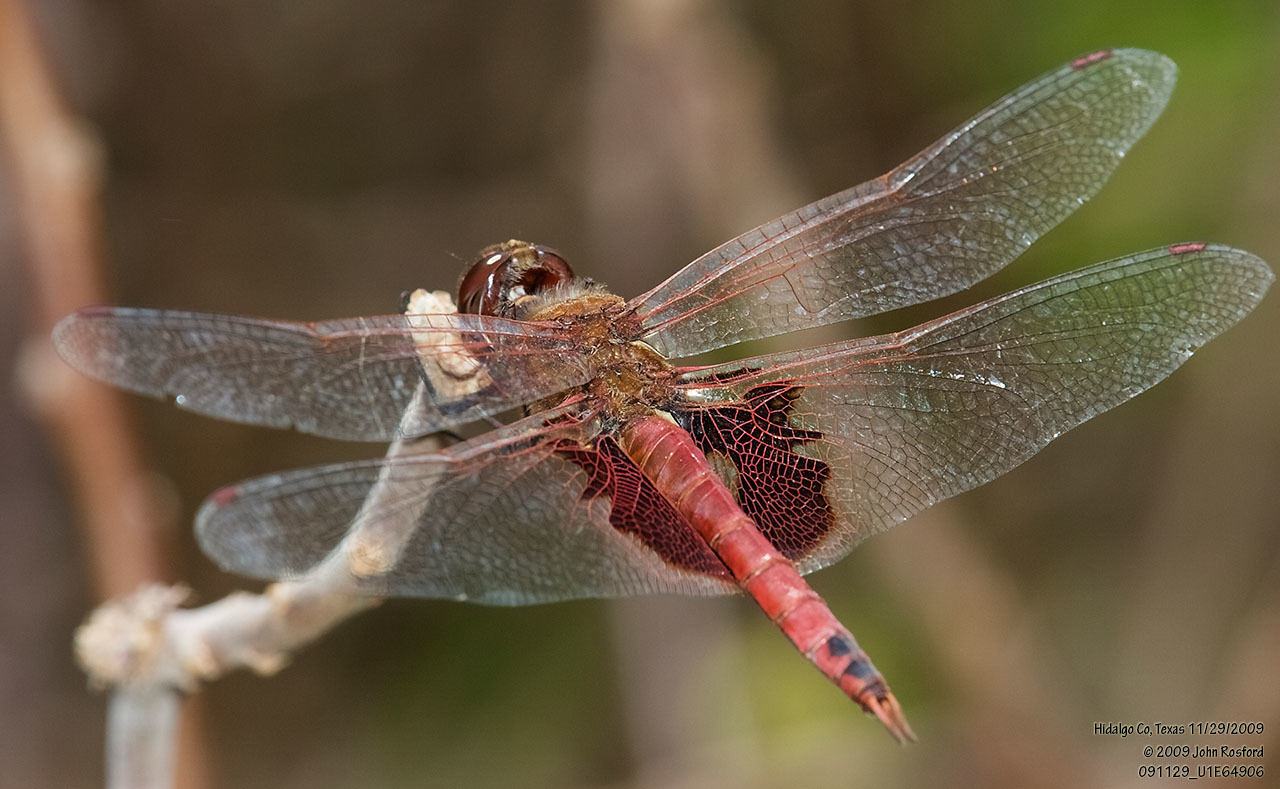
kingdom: Animalia
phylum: Arthropoda
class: Insecta
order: Odonata
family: Libellulidae
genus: Tramea
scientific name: Tramea onusta
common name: Red saddlebags
